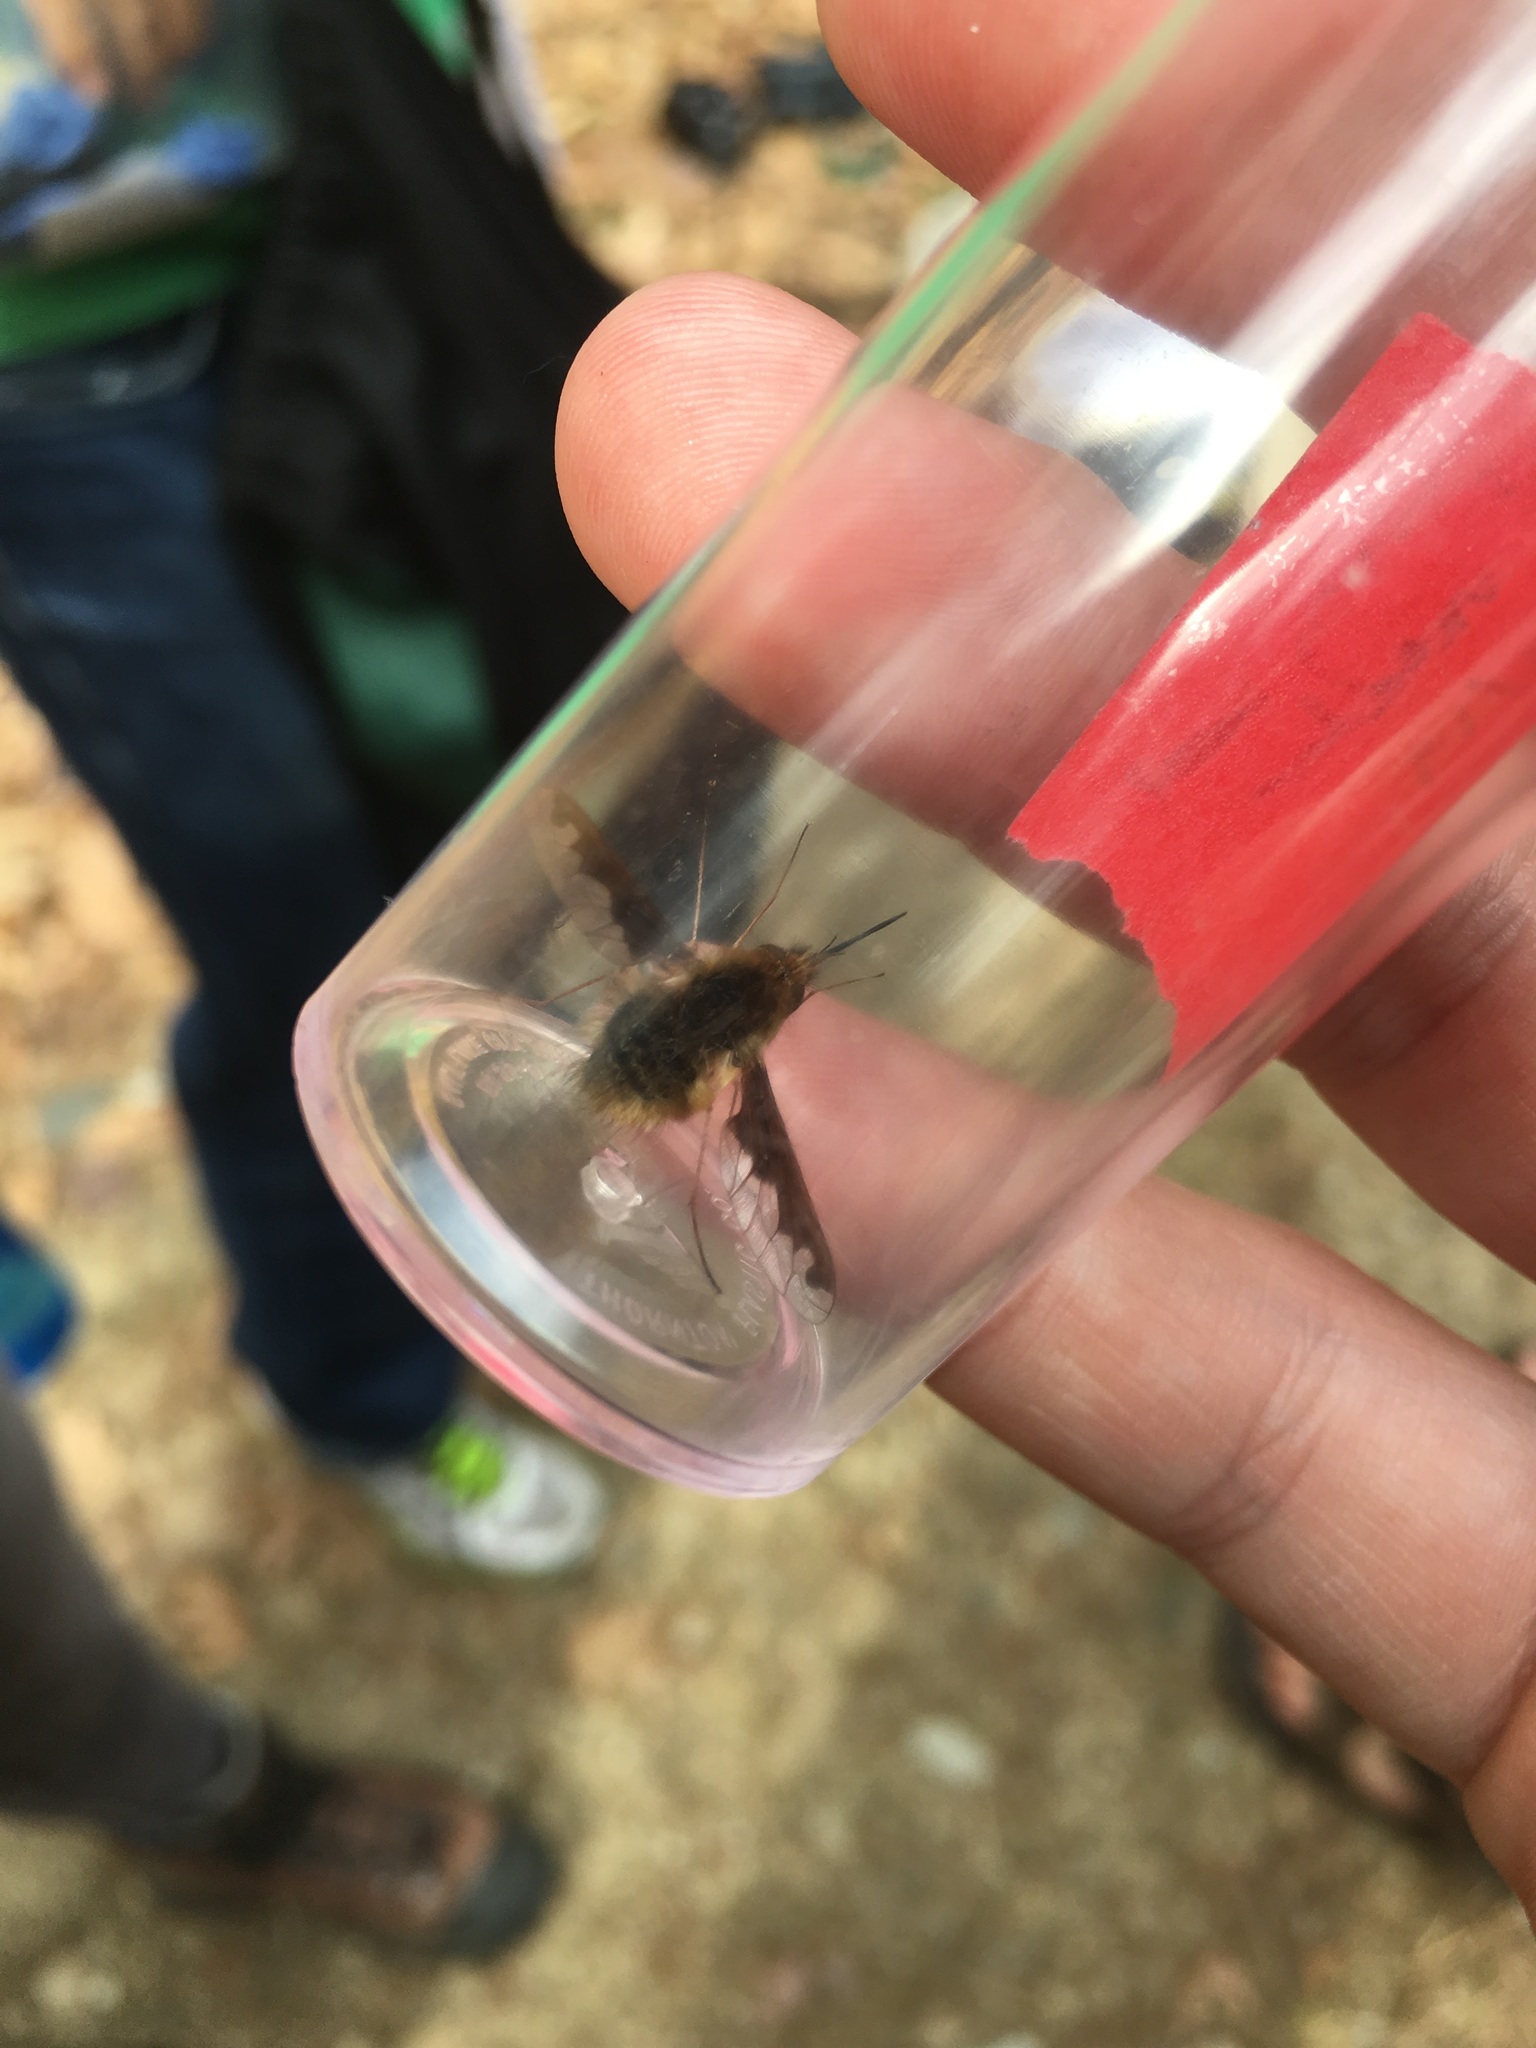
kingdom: Animalia
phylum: Arthropoda
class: Insecta
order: Diptera
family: Bombyliidae
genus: Bombylius
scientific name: Bombylius major
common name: Bee fly
